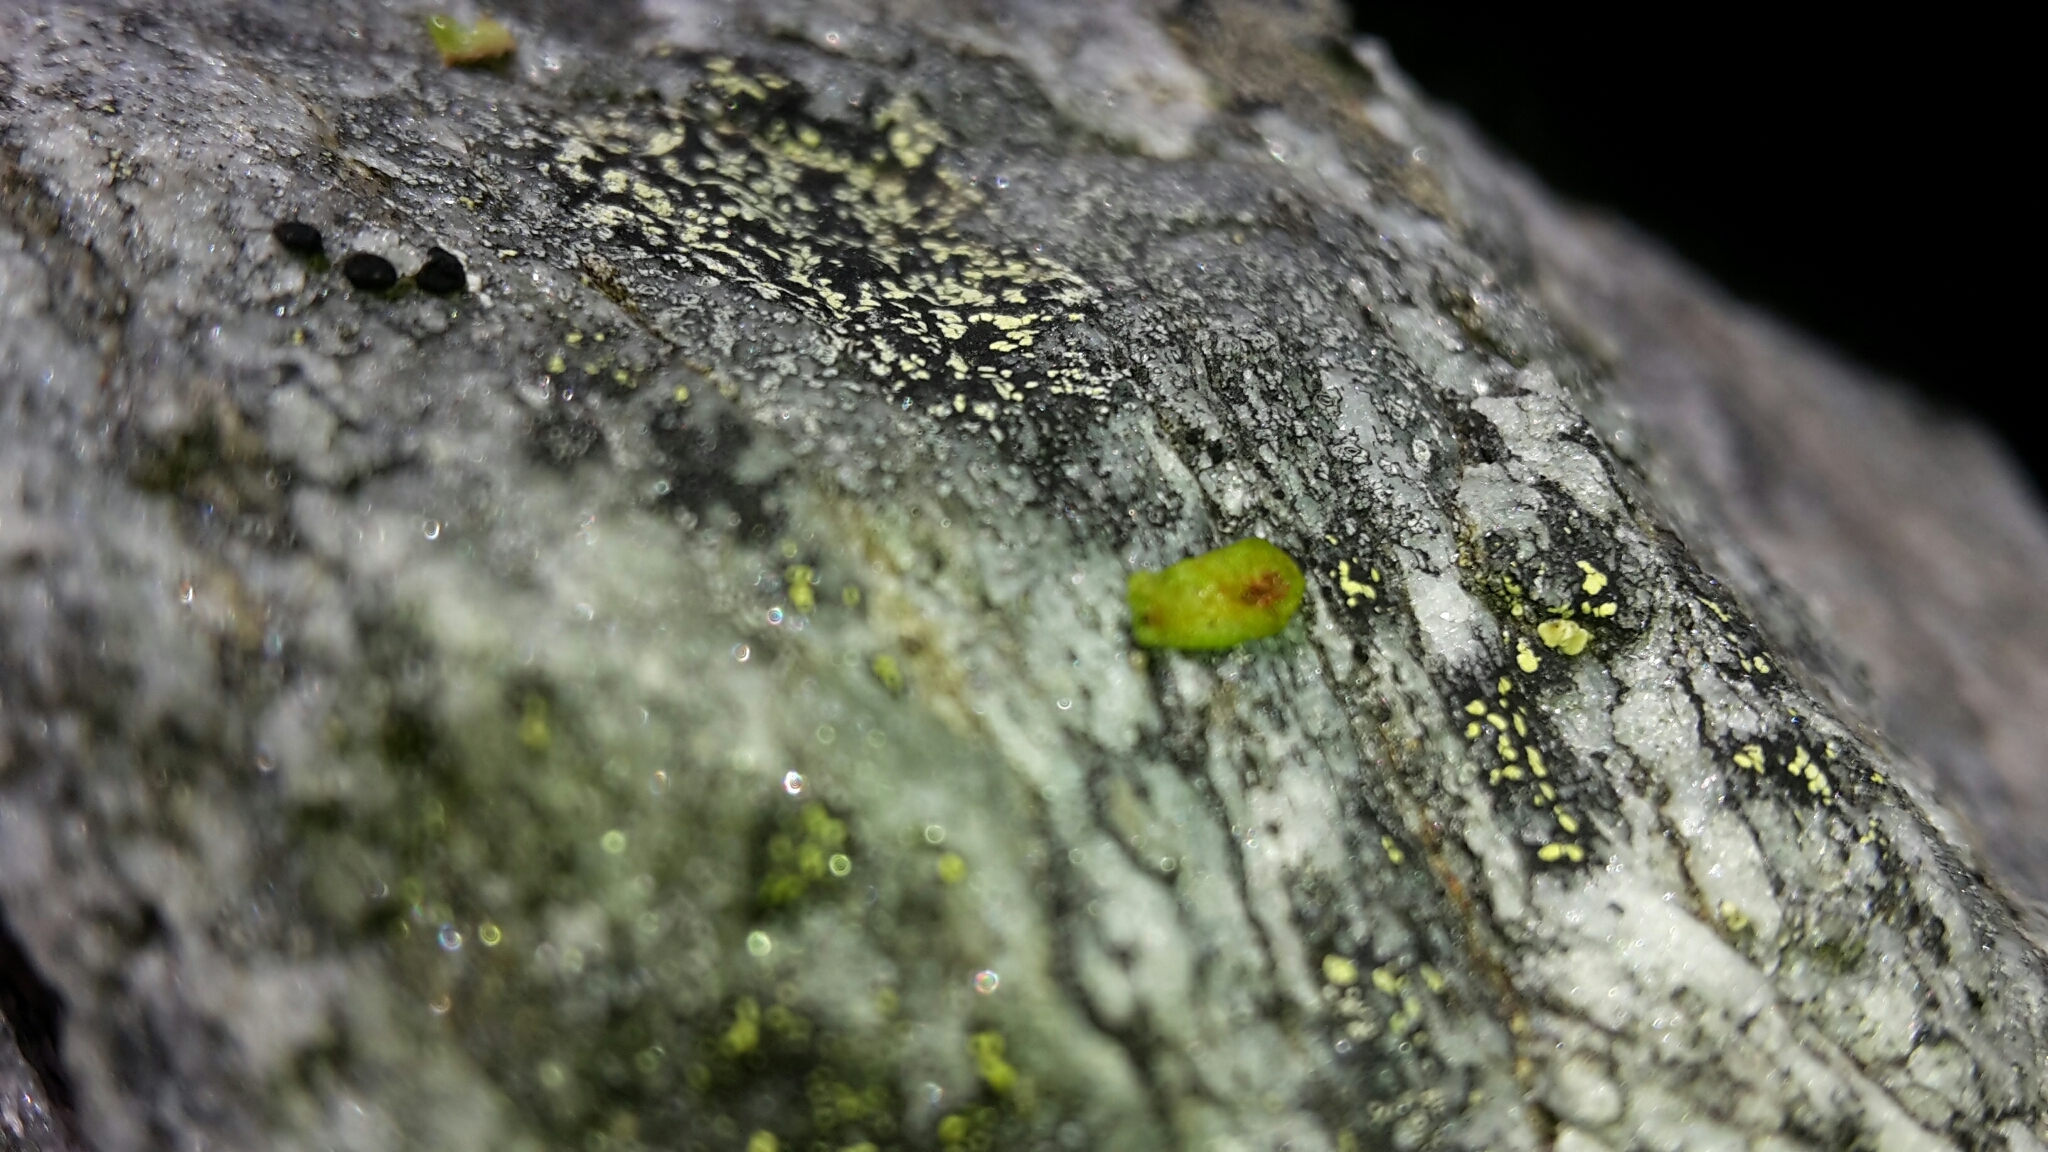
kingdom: Plantae
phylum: Tracheophyta
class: Polypodiopsida
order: Polypodiales
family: Polypodiaceae
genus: Notogrammitis
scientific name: Notogrammitis crassior
